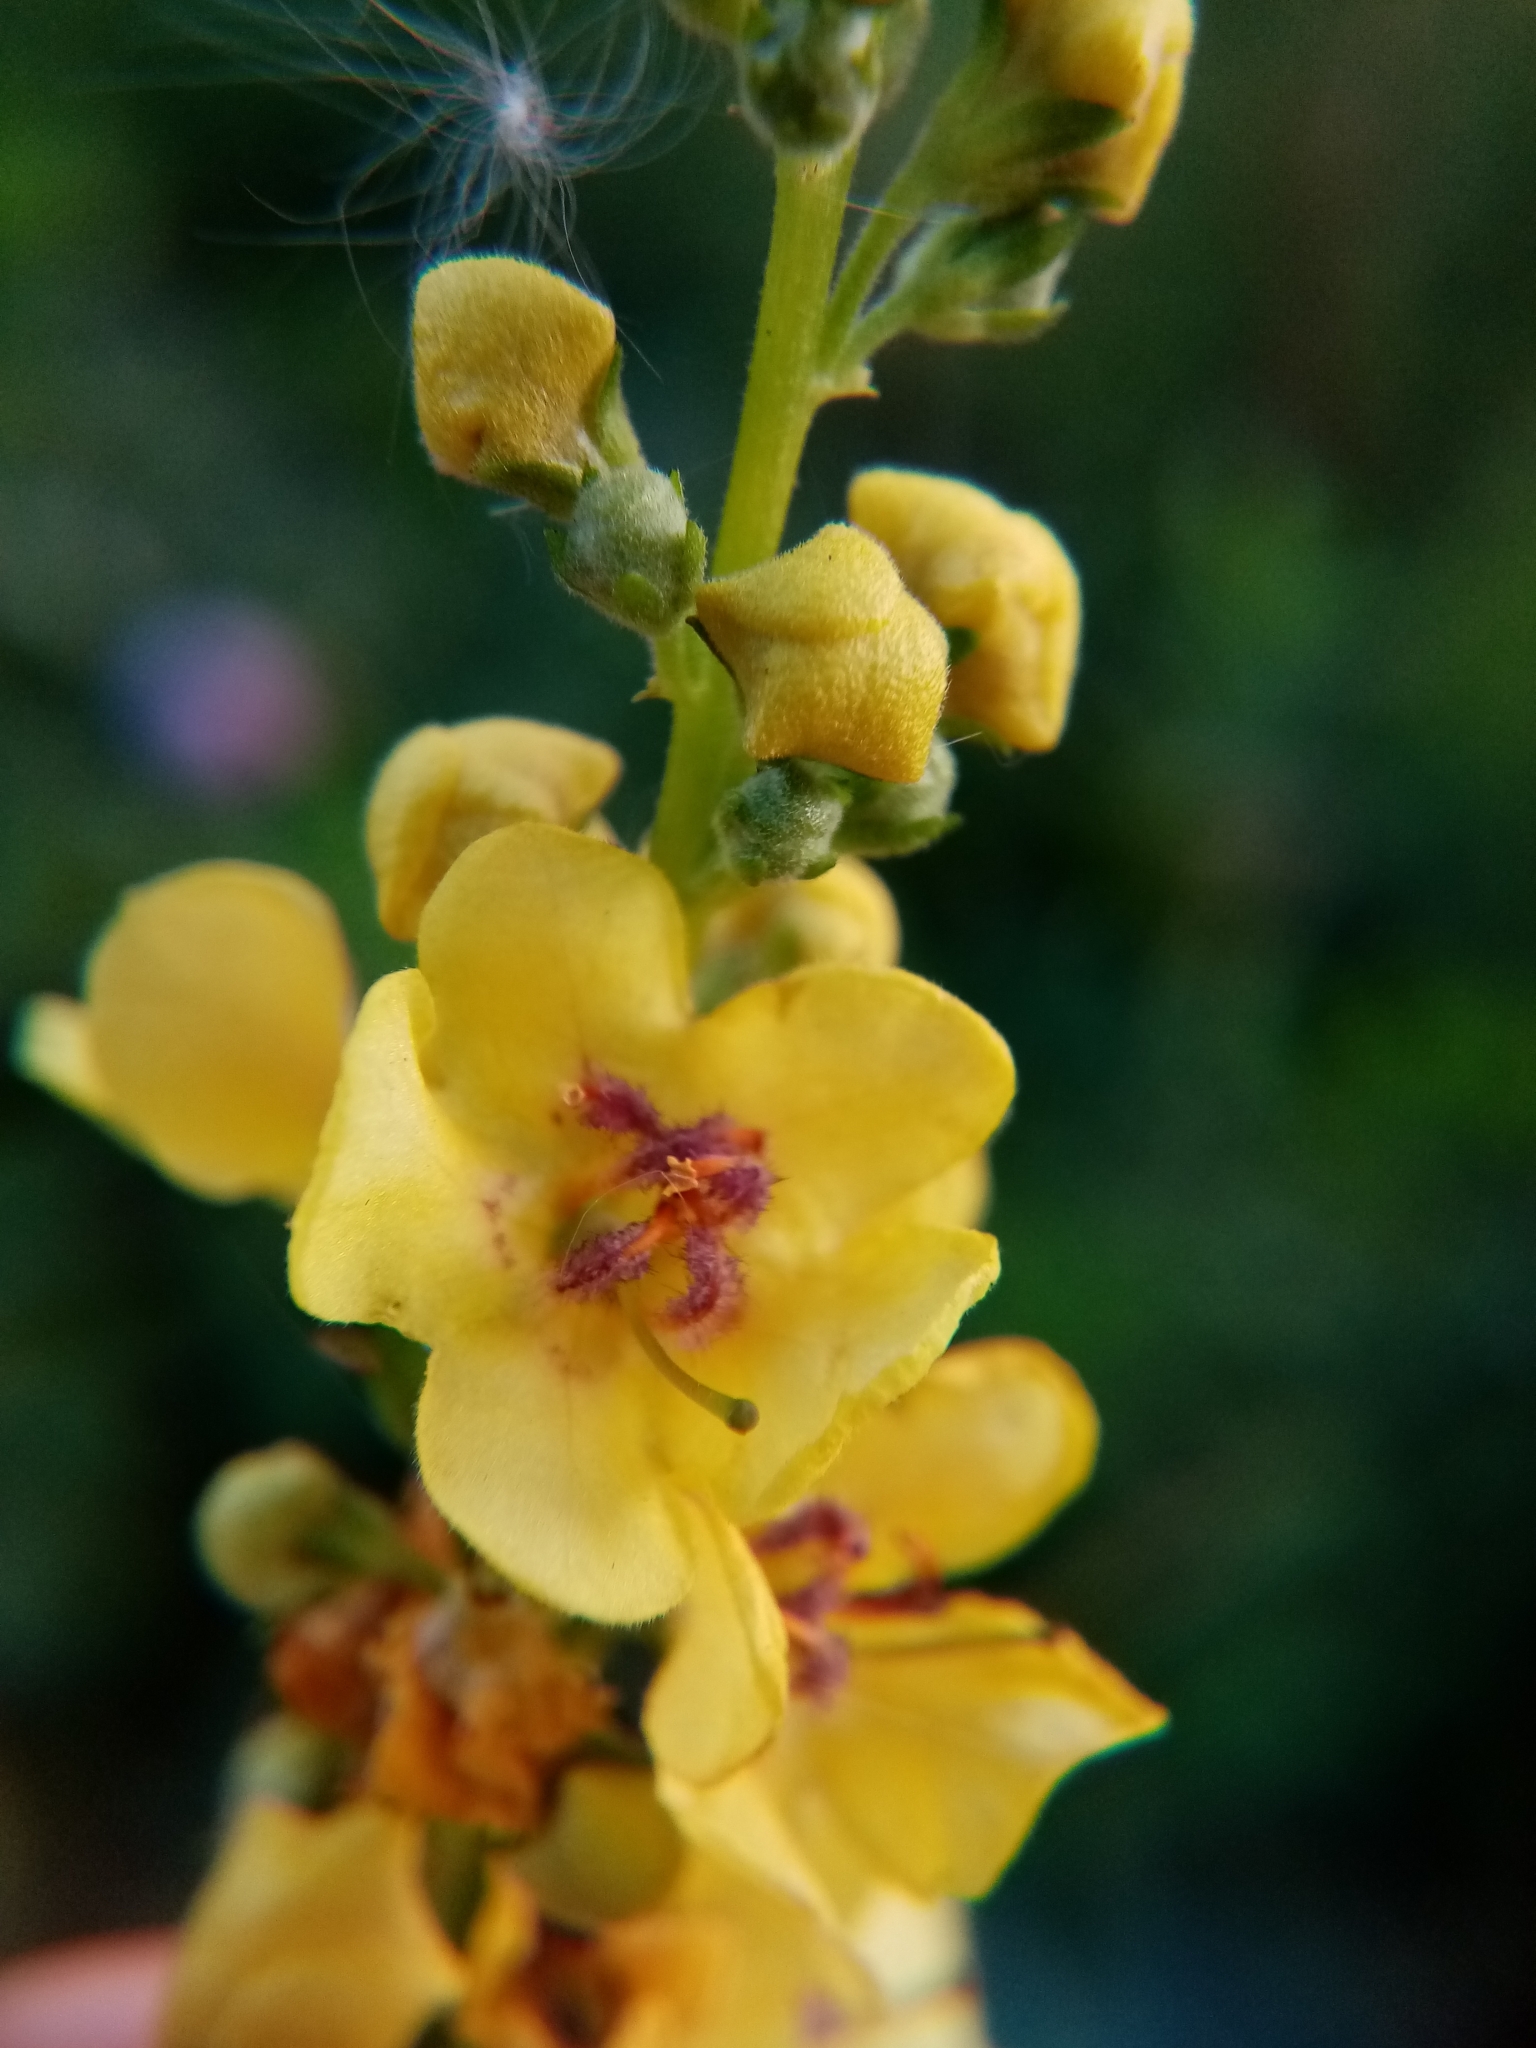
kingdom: Plantae
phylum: Tracheophyta
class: Magnoliopsida
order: Lamiales
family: Scrophulariaceae
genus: Verbascum
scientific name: Verbascum nigrum
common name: Dark mullein
